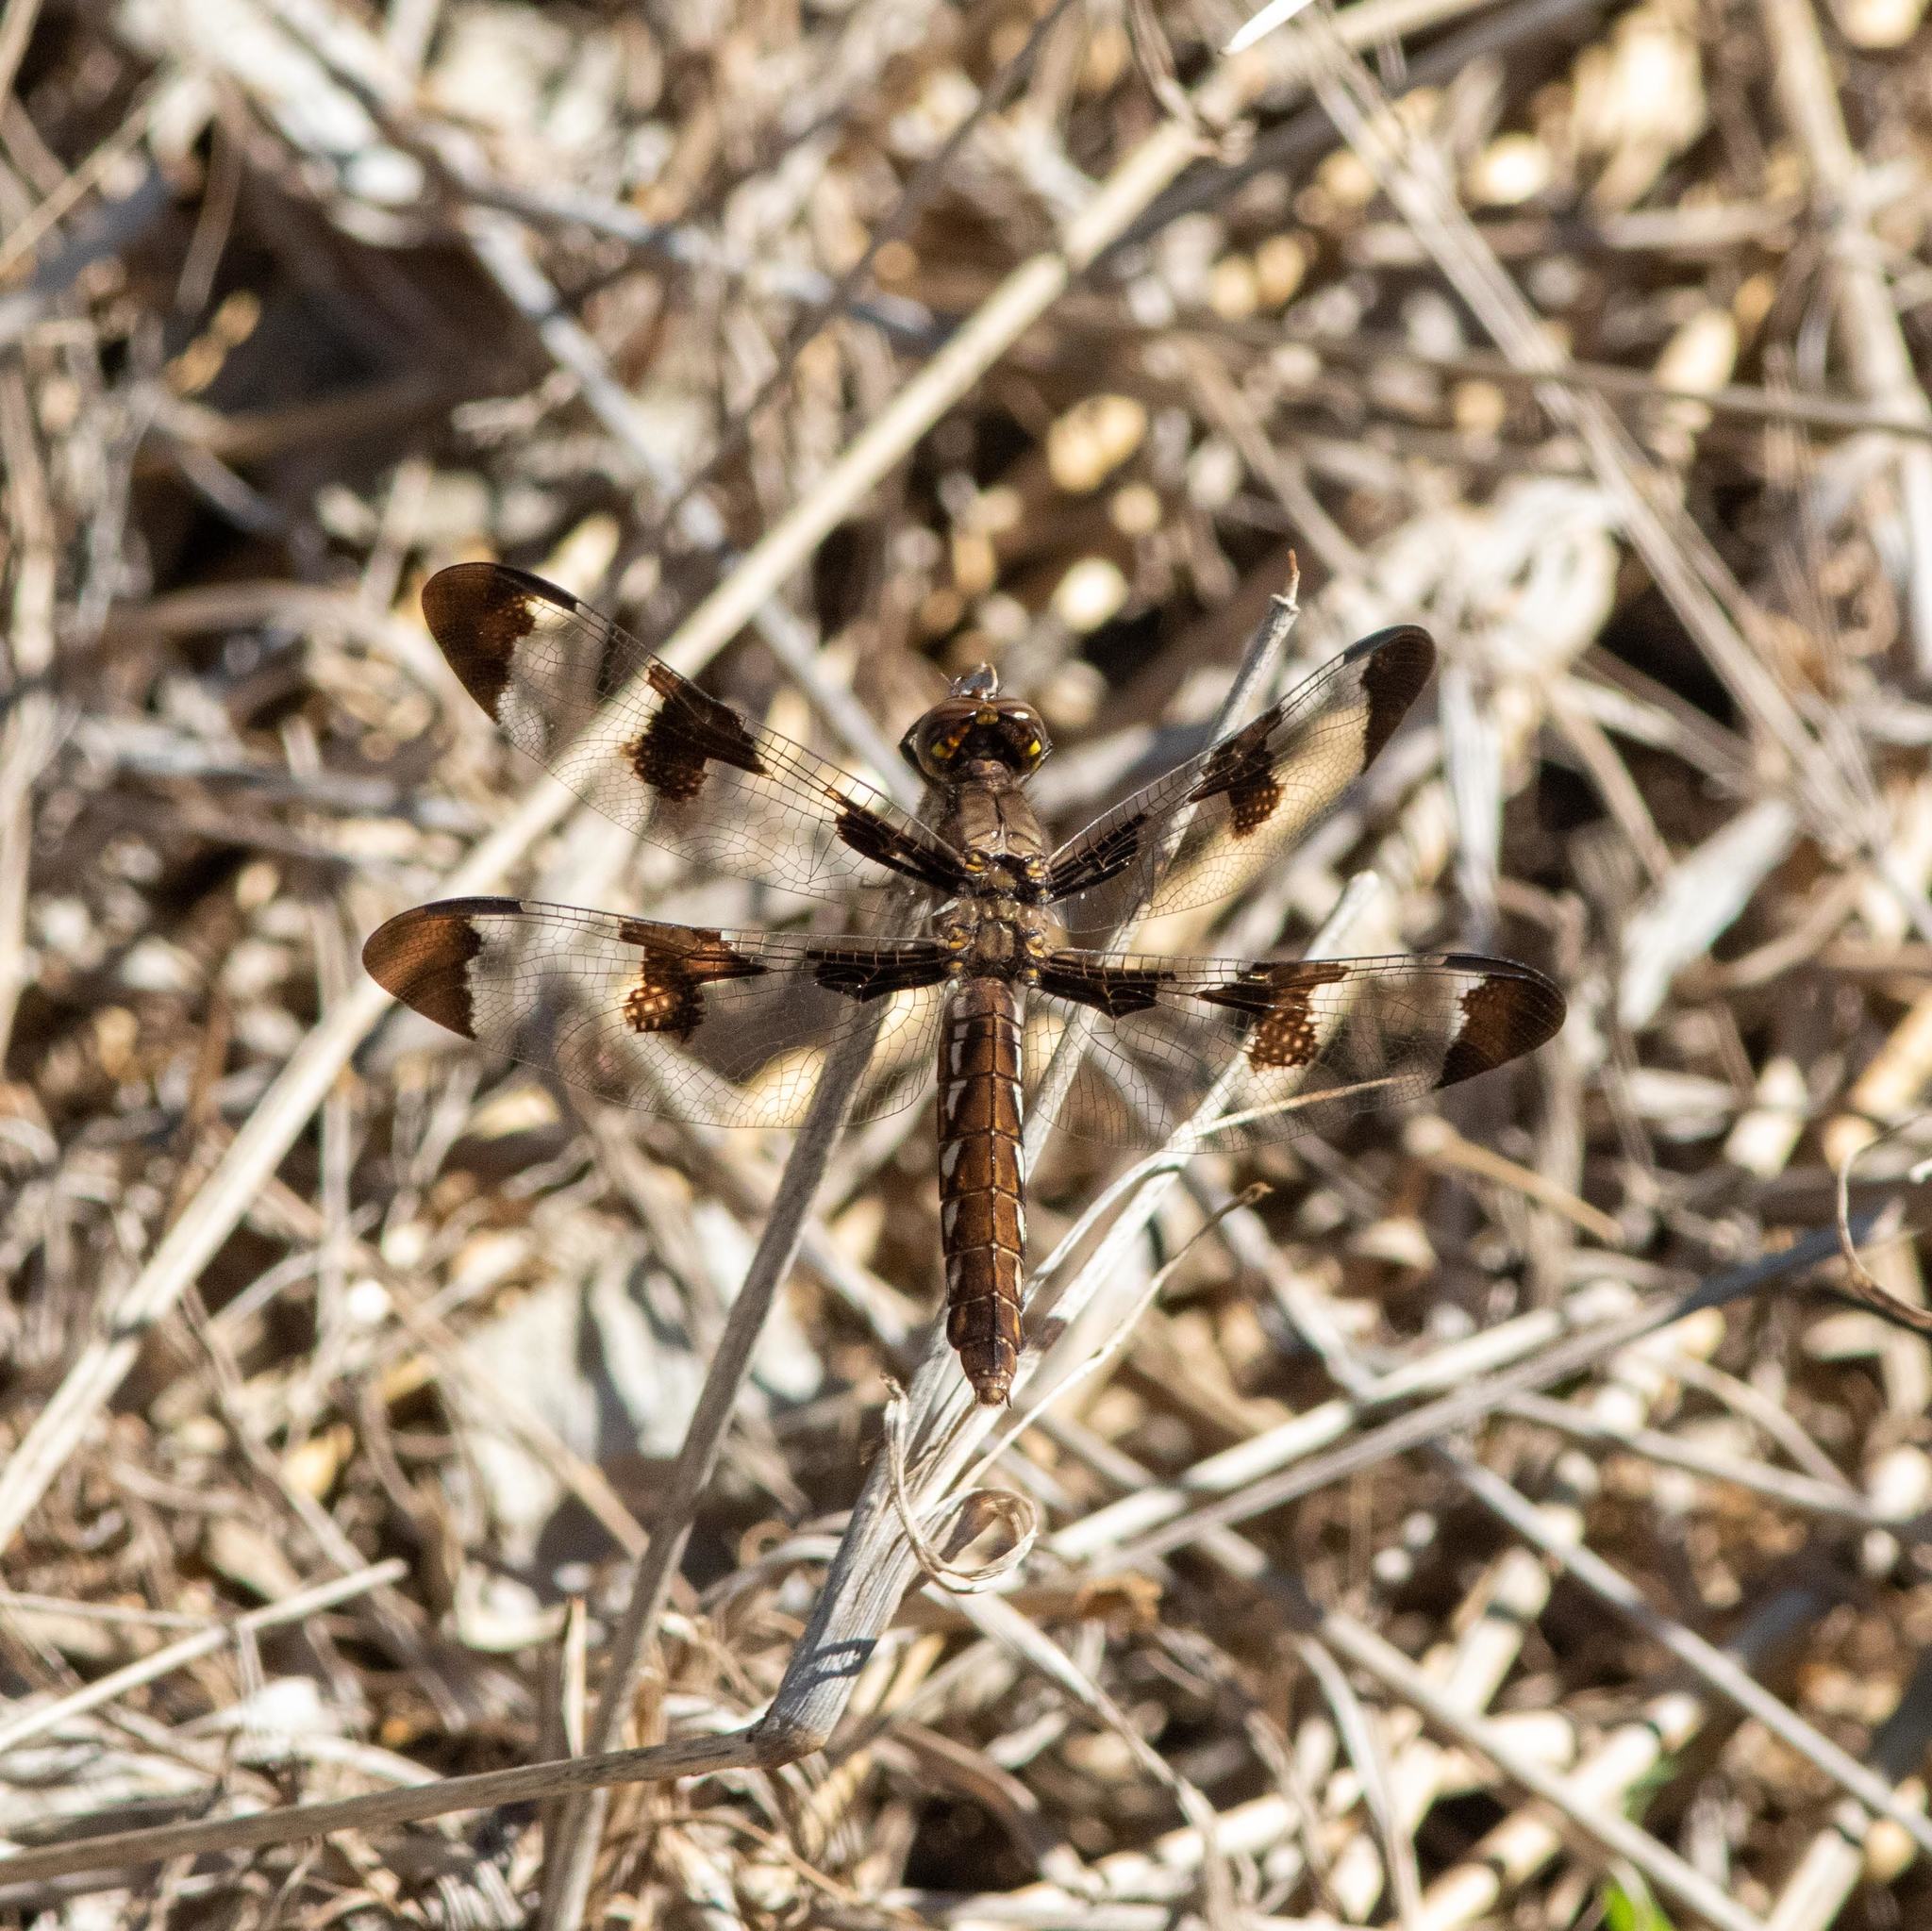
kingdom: Animalia
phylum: Arthropoda
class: Insecta
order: Odonata
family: Libellulidae
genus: Plathemis
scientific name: Plathemis lydia
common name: Common whitetail
